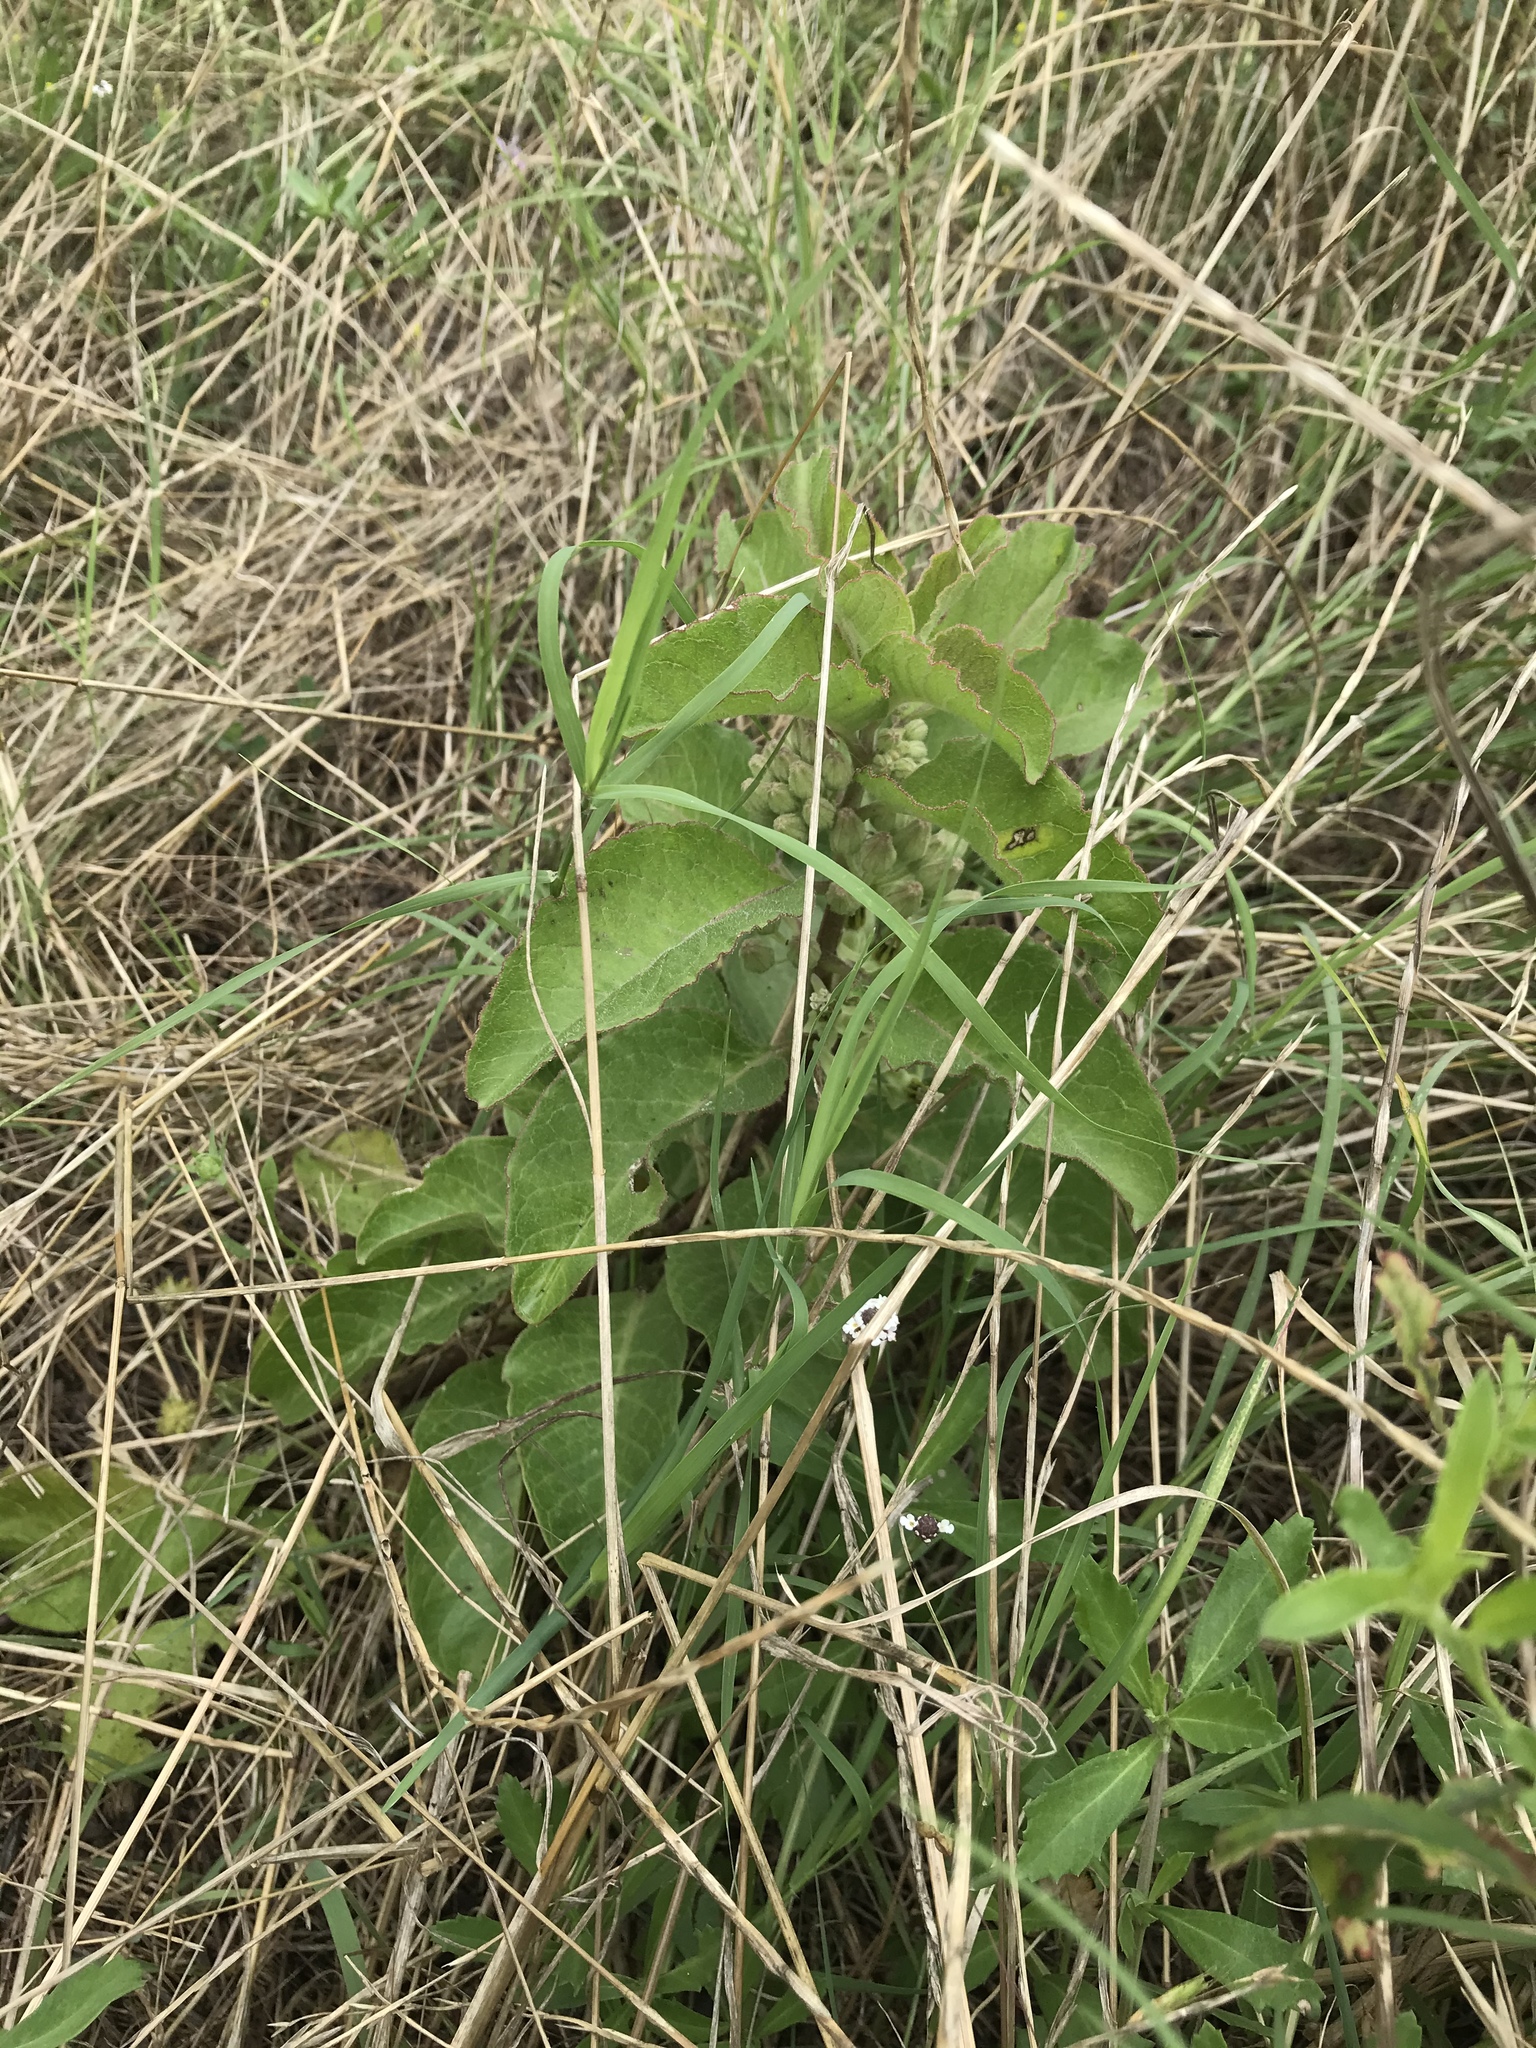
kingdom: Plantae
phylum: Tracheophyta
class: Magnoliopsida
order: Gentianales
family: Apocynaceae
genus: Asclepias
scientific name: Asclepias oenotheroides
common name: Zizotes milkweed
